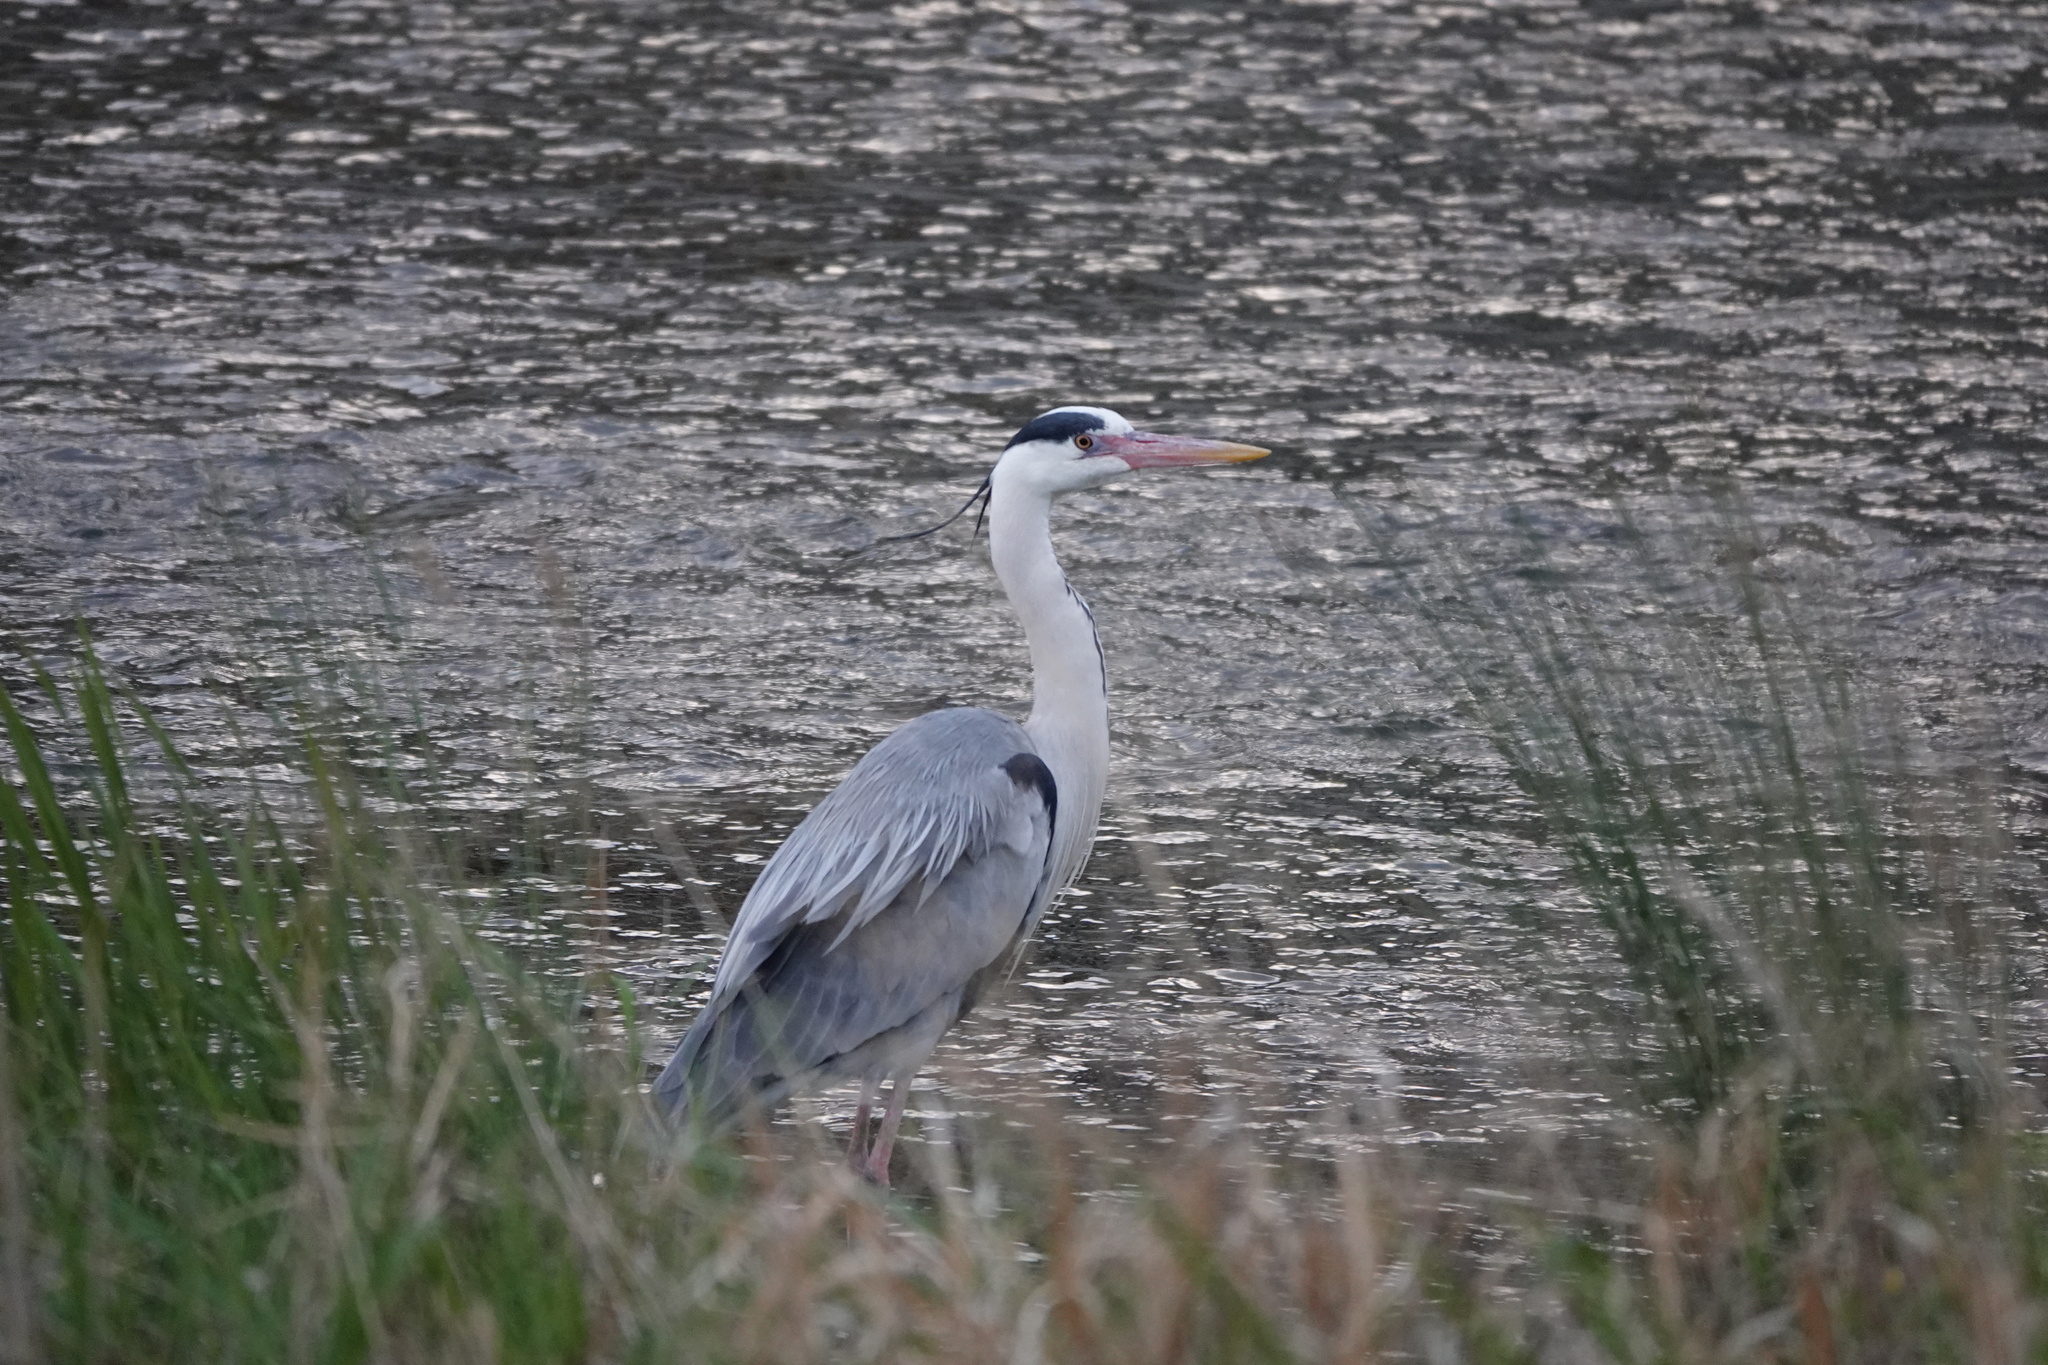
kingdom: Animalia
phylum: Chordata
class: Aves
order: Pelecaniformes
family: Ardeidae
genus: Ardea
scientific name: Ardea cinerea
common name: Grey heron
